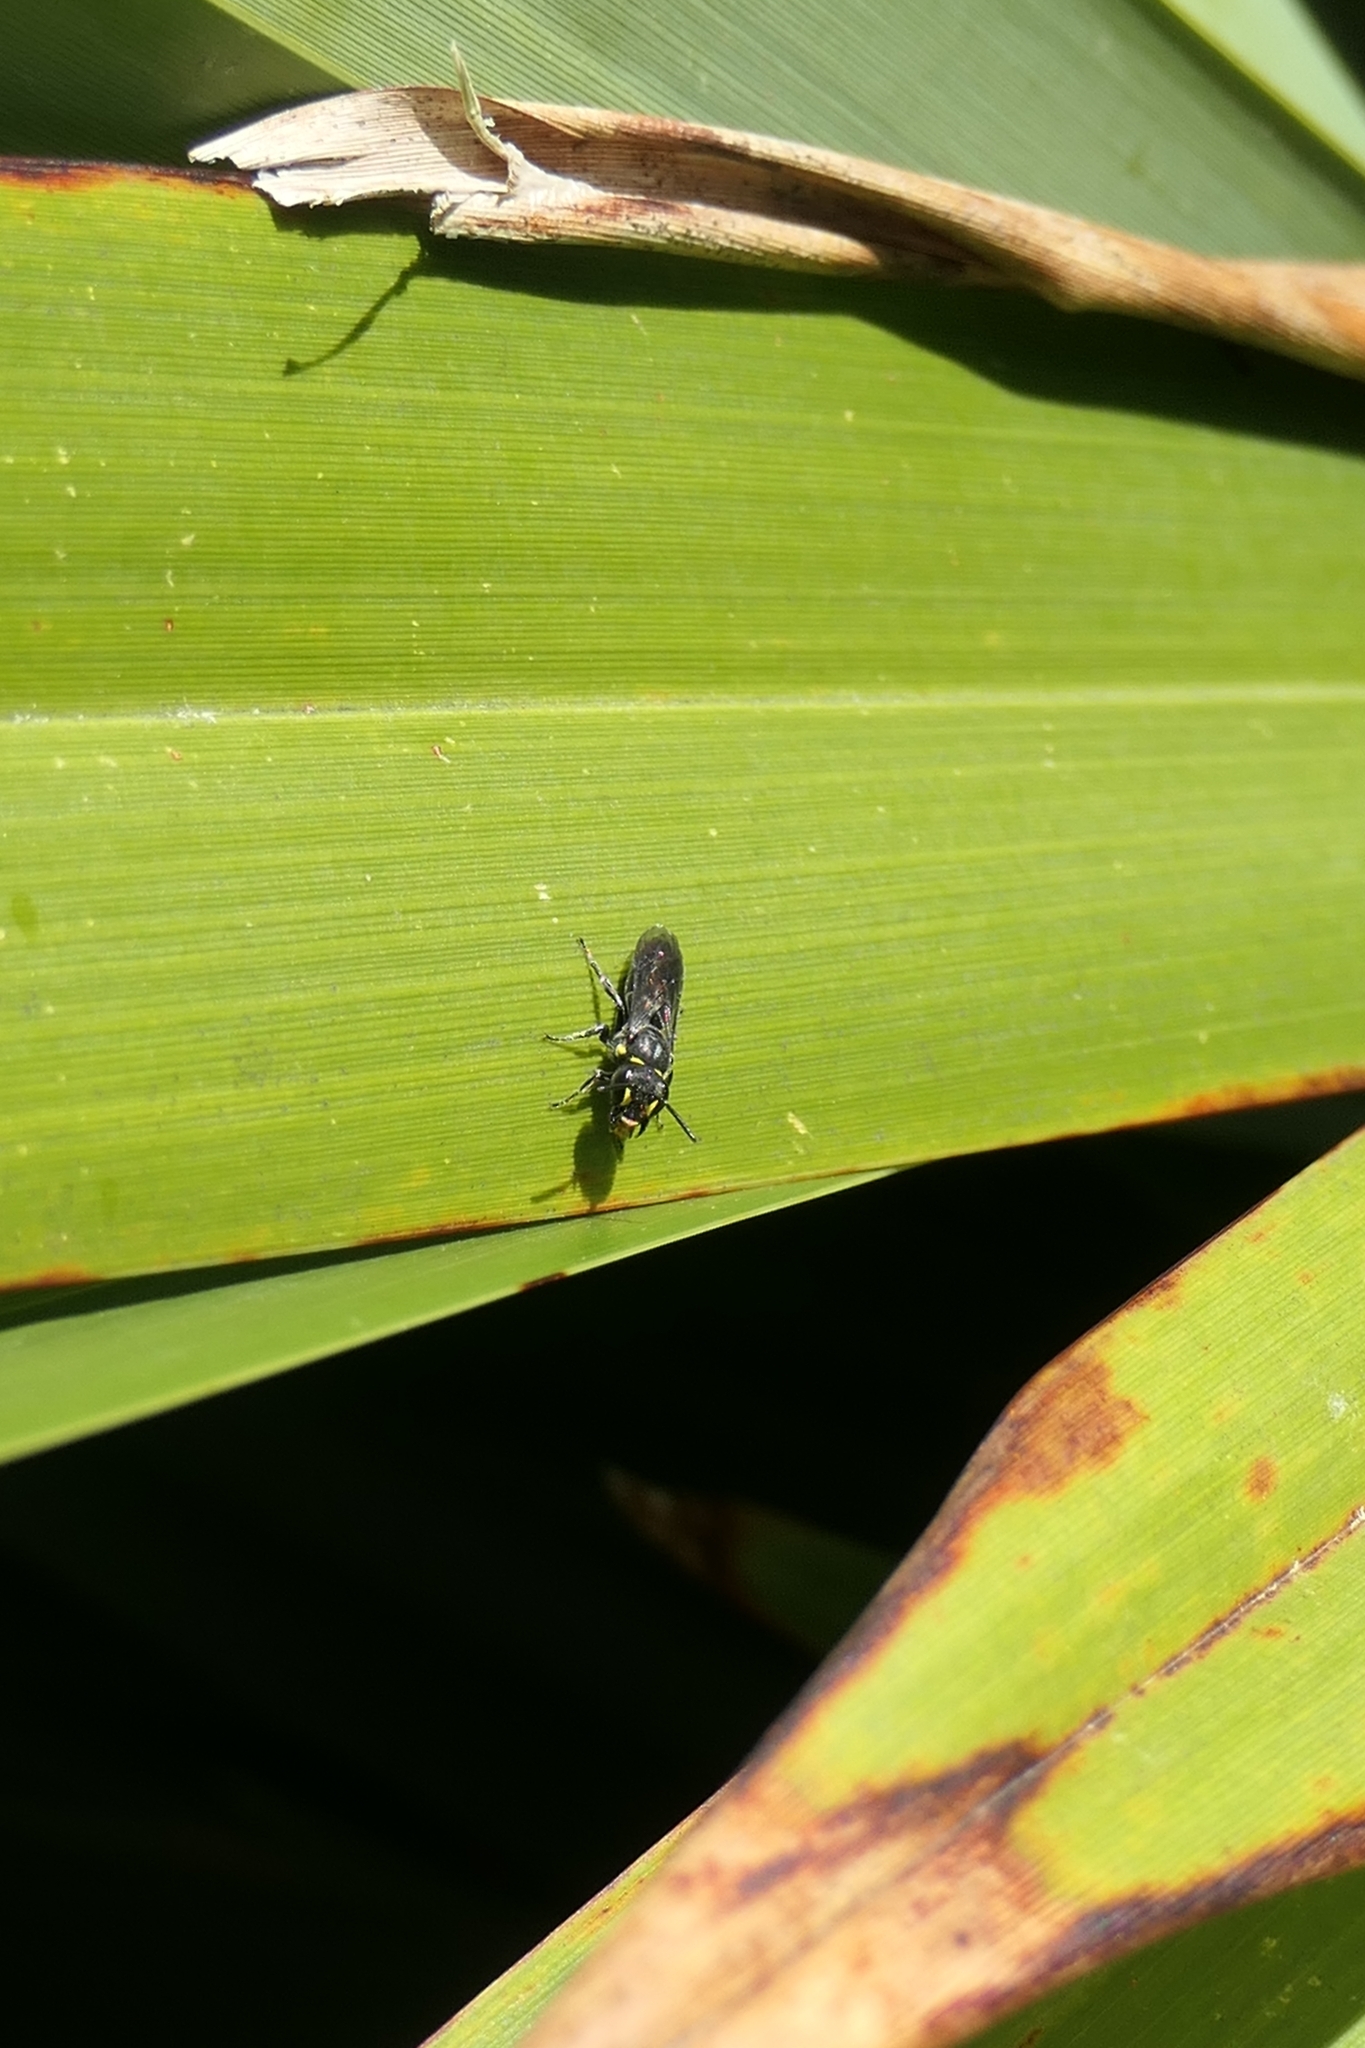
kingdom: Animalia
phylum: Arthropoda
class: Insecta
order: Hymenoptera
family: Colletidae
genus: Hylaeus
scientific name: Hylaeus relegatus
